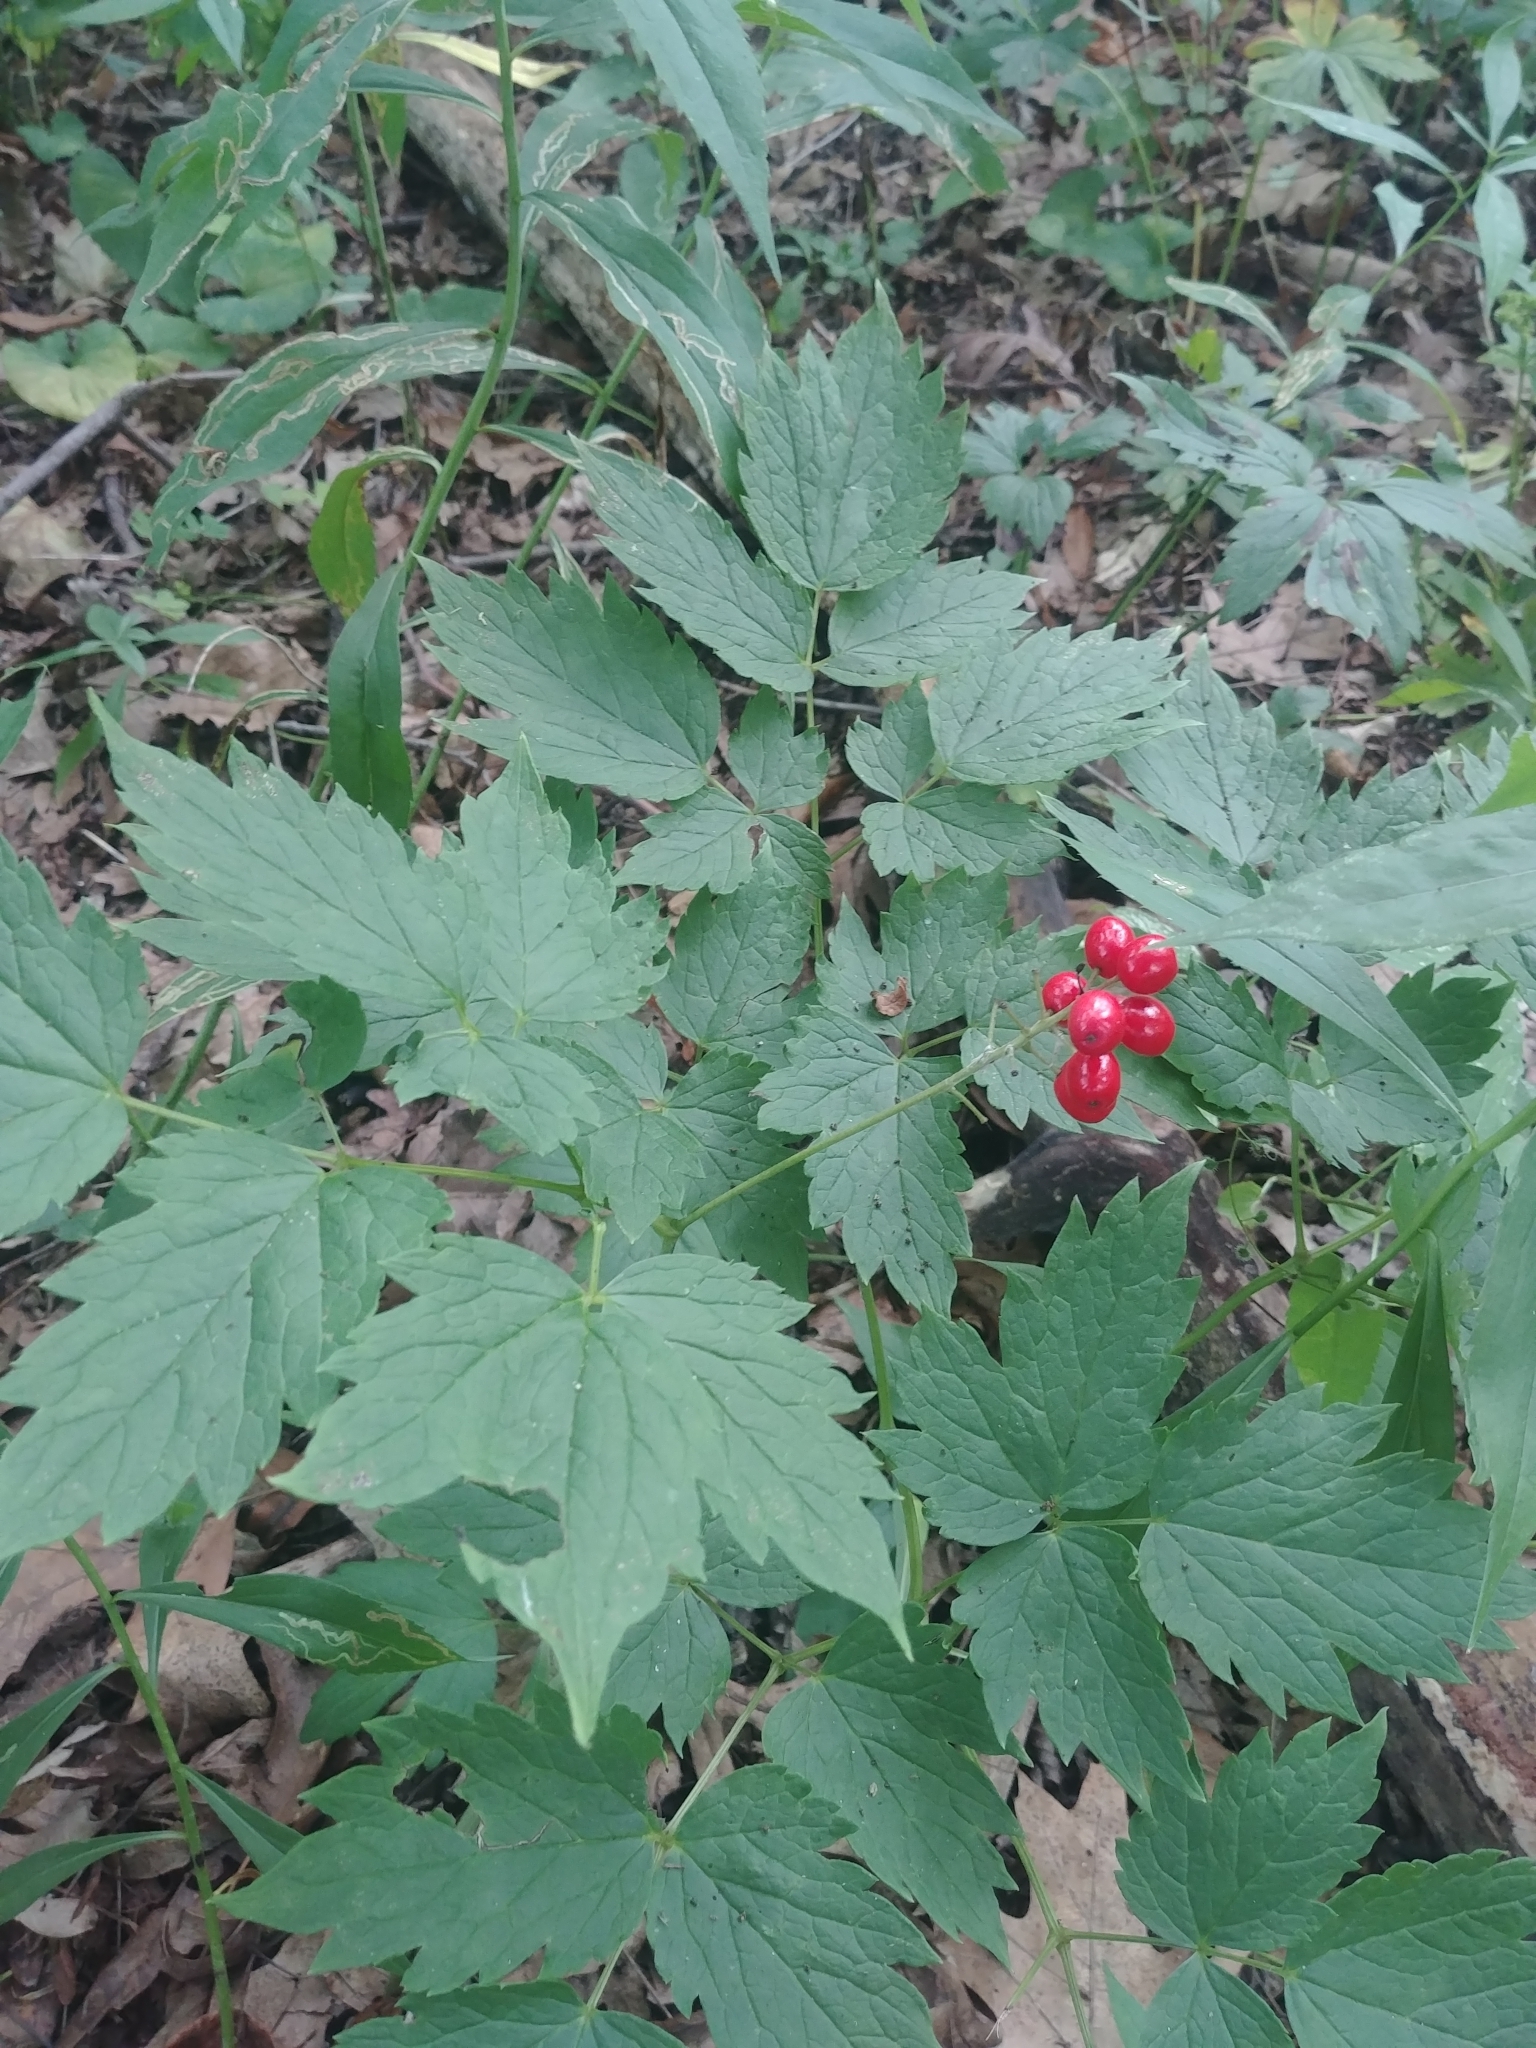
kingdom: Plantae
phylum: Tracheophyta
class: Magnoliopsida
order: Ranunculales
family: Ranunculaceae
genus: Actaea
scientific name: Actaea rubra
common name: Red baneberry
